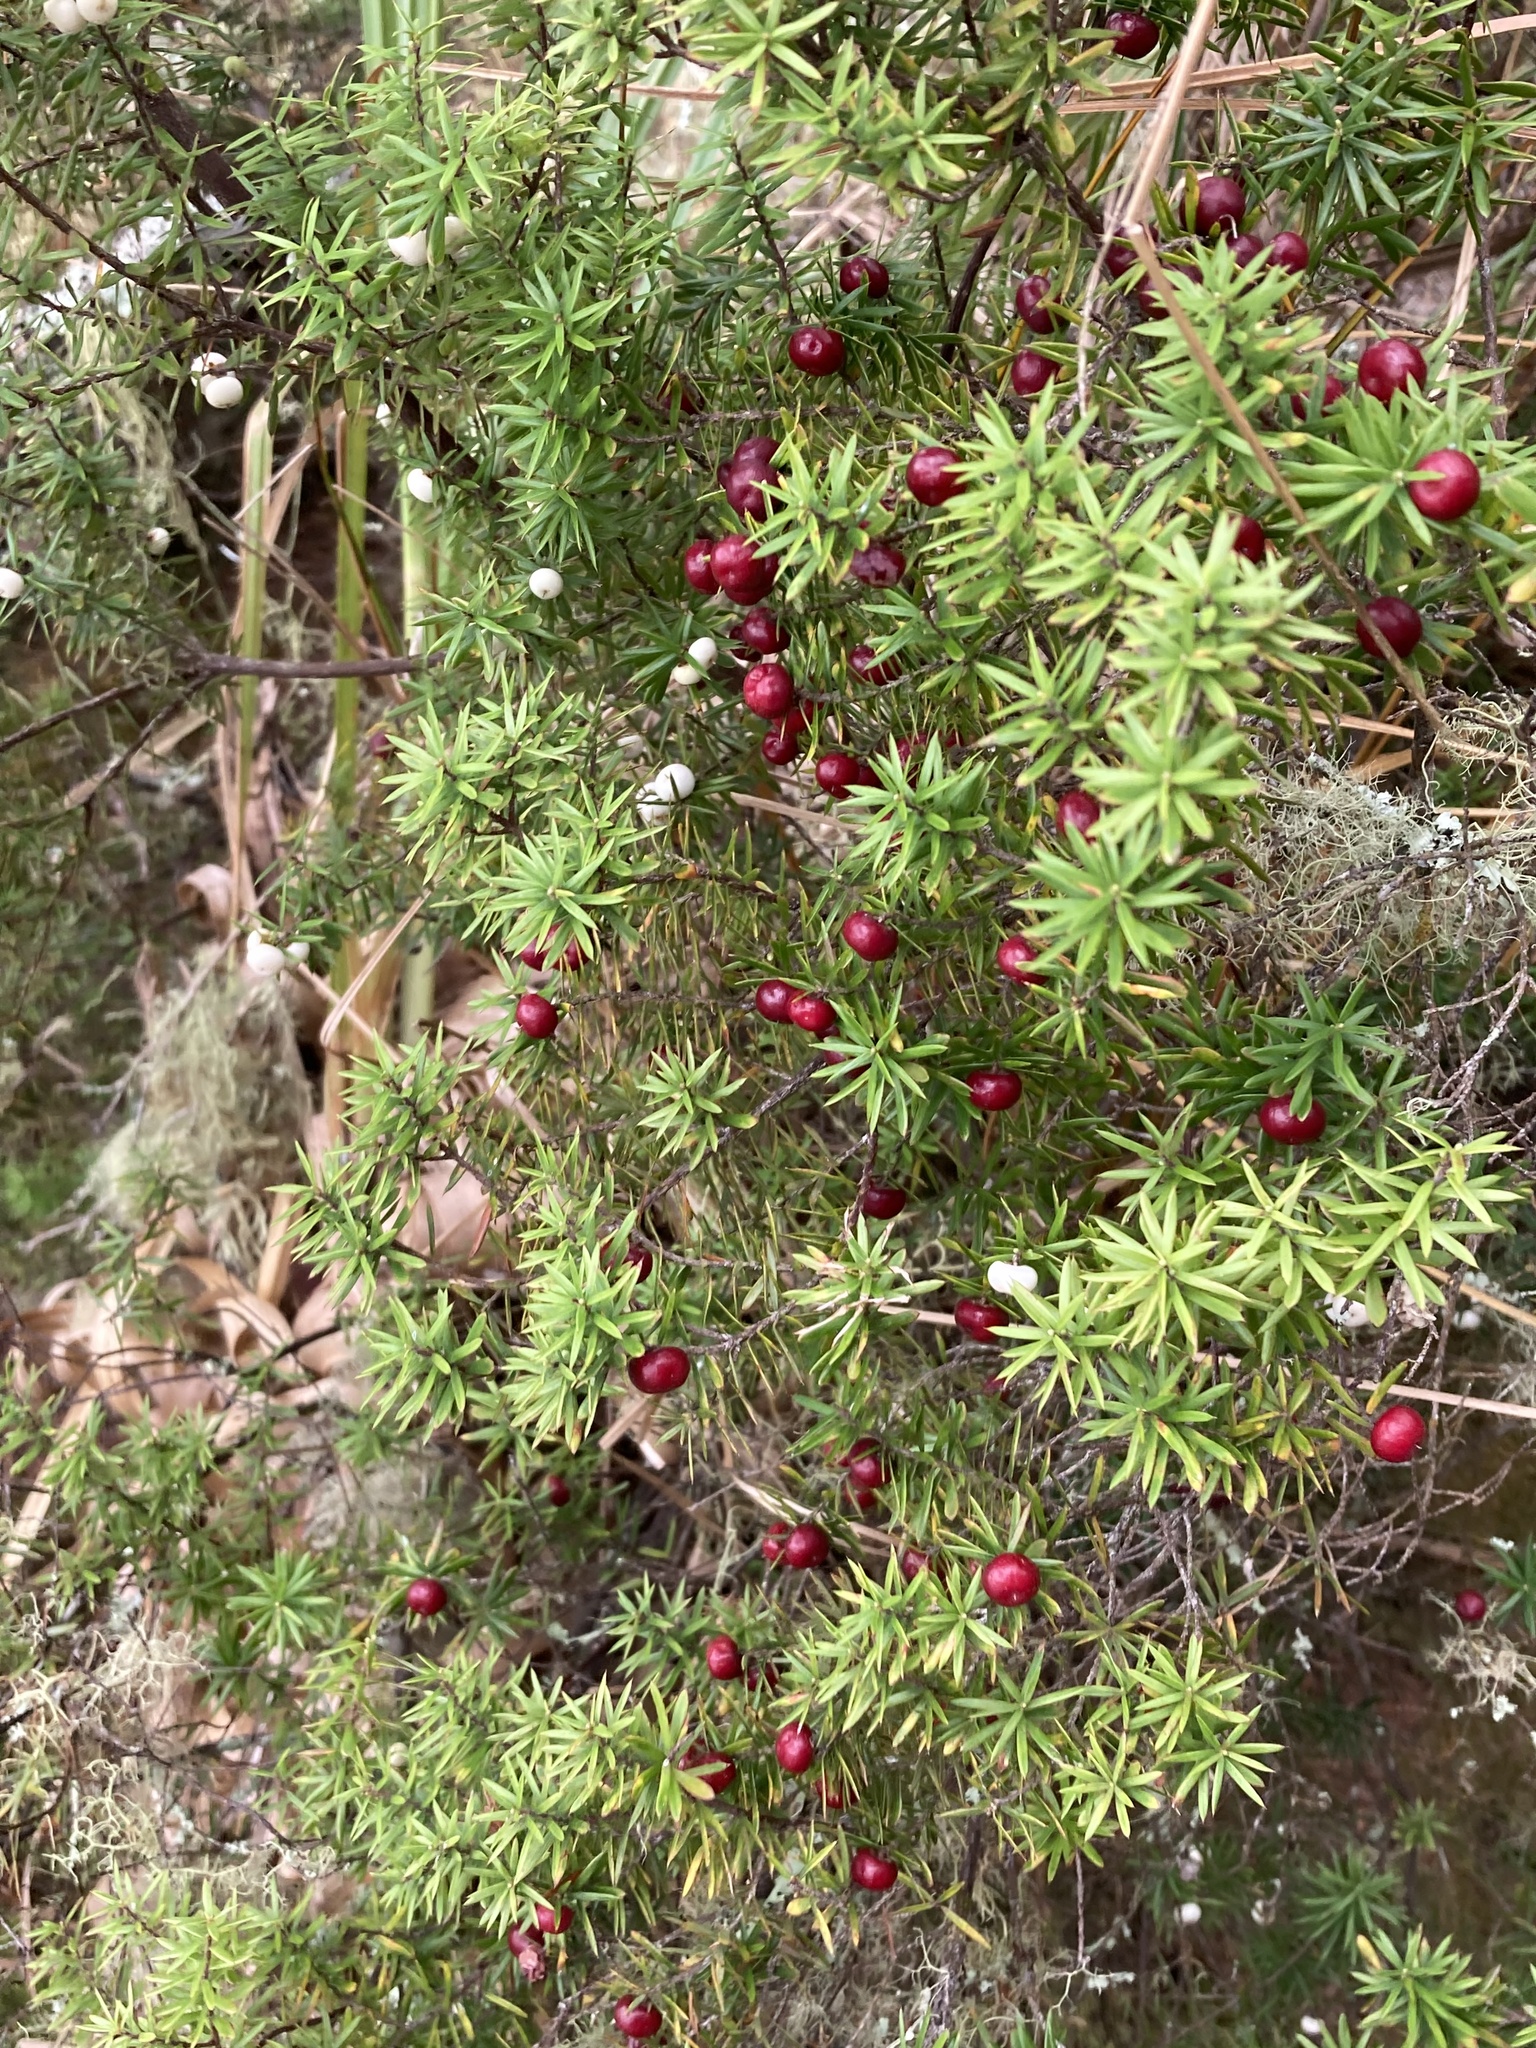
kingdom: Plantae
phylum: Tracheophyta
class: Magnoliopsida
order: Ericales
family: Ericaceae
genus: Leptecophylla
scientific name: Leptecophylla juniperina
